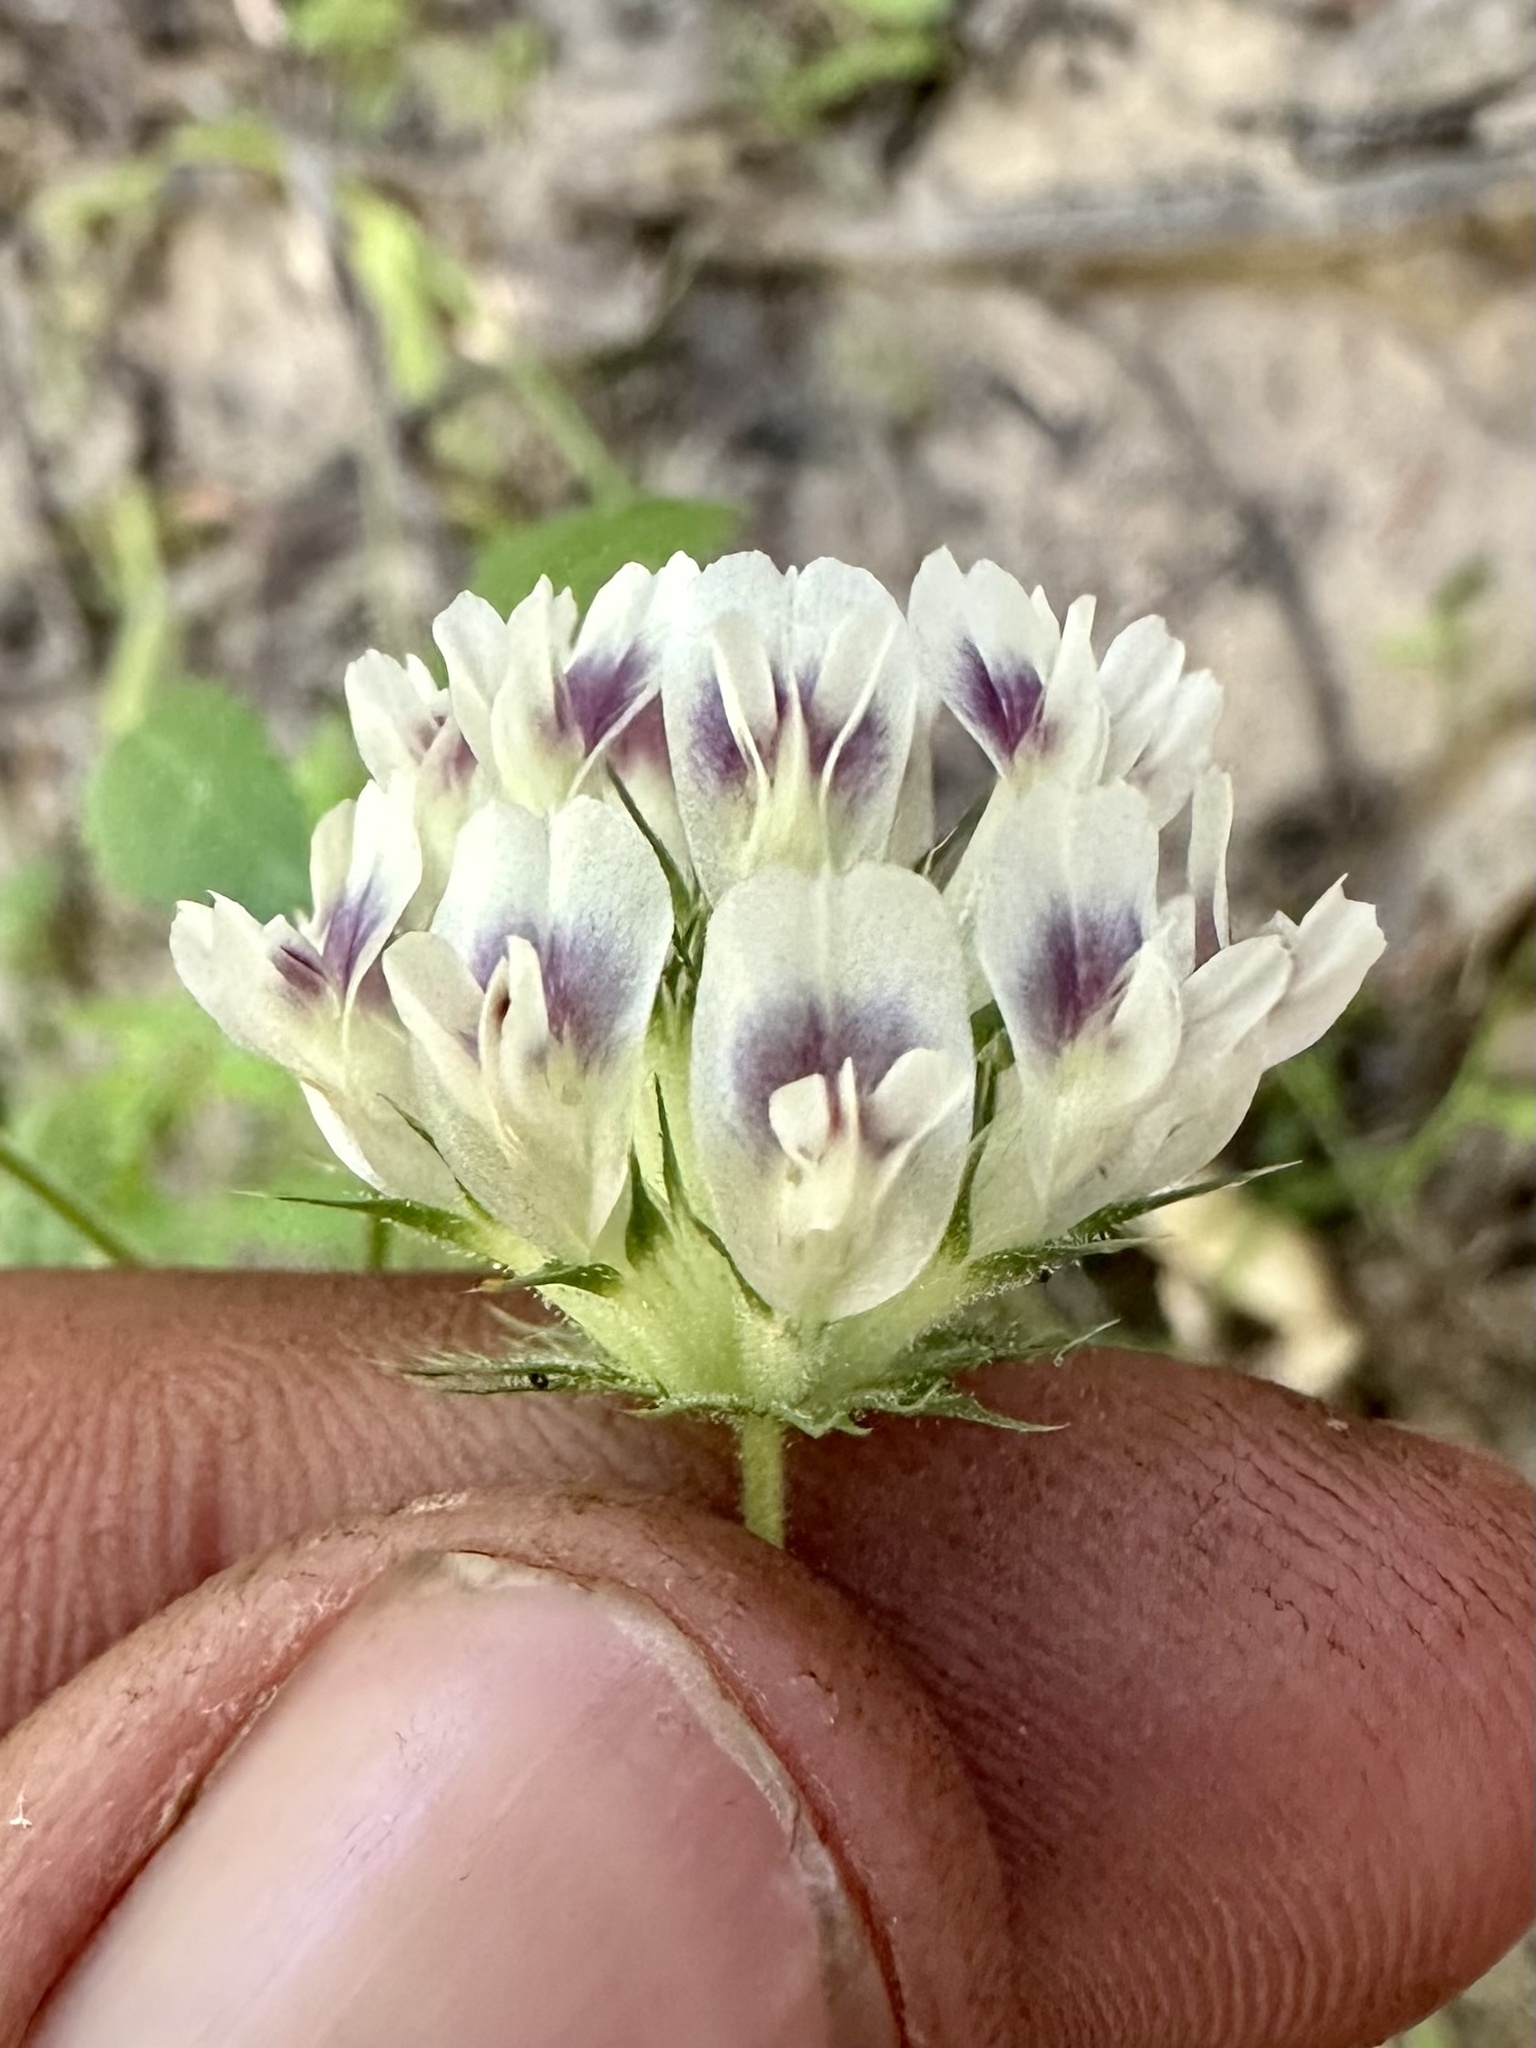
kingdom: Plantae
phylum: Tracheophyta
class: Magnoliopsida
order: Fabales
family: Fabaceae
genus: Trifolium
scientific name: Trifolium obtusiflorum
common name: Clammy clover
